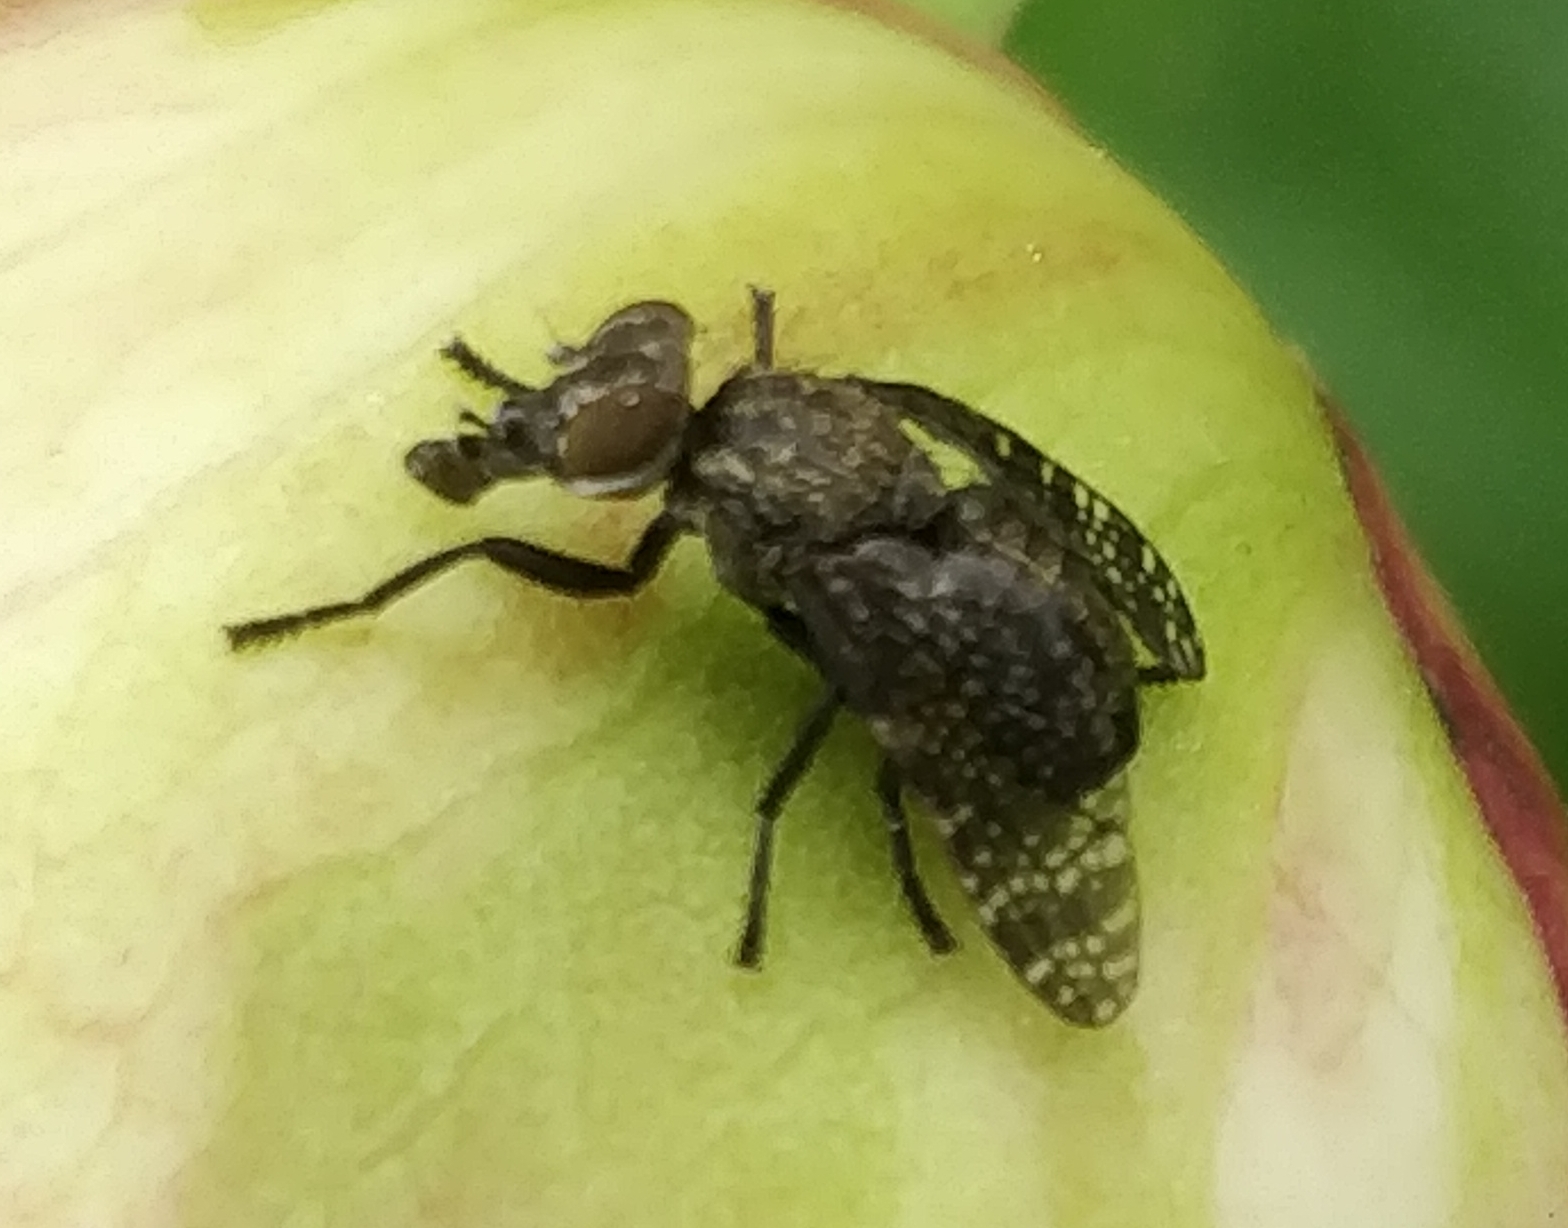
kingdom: Animalia
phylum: Arthropoda
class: Insecta
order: Diptera
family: Platystomatidae
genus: Platystoma
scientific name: Platystoma seminationis
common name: Fly
